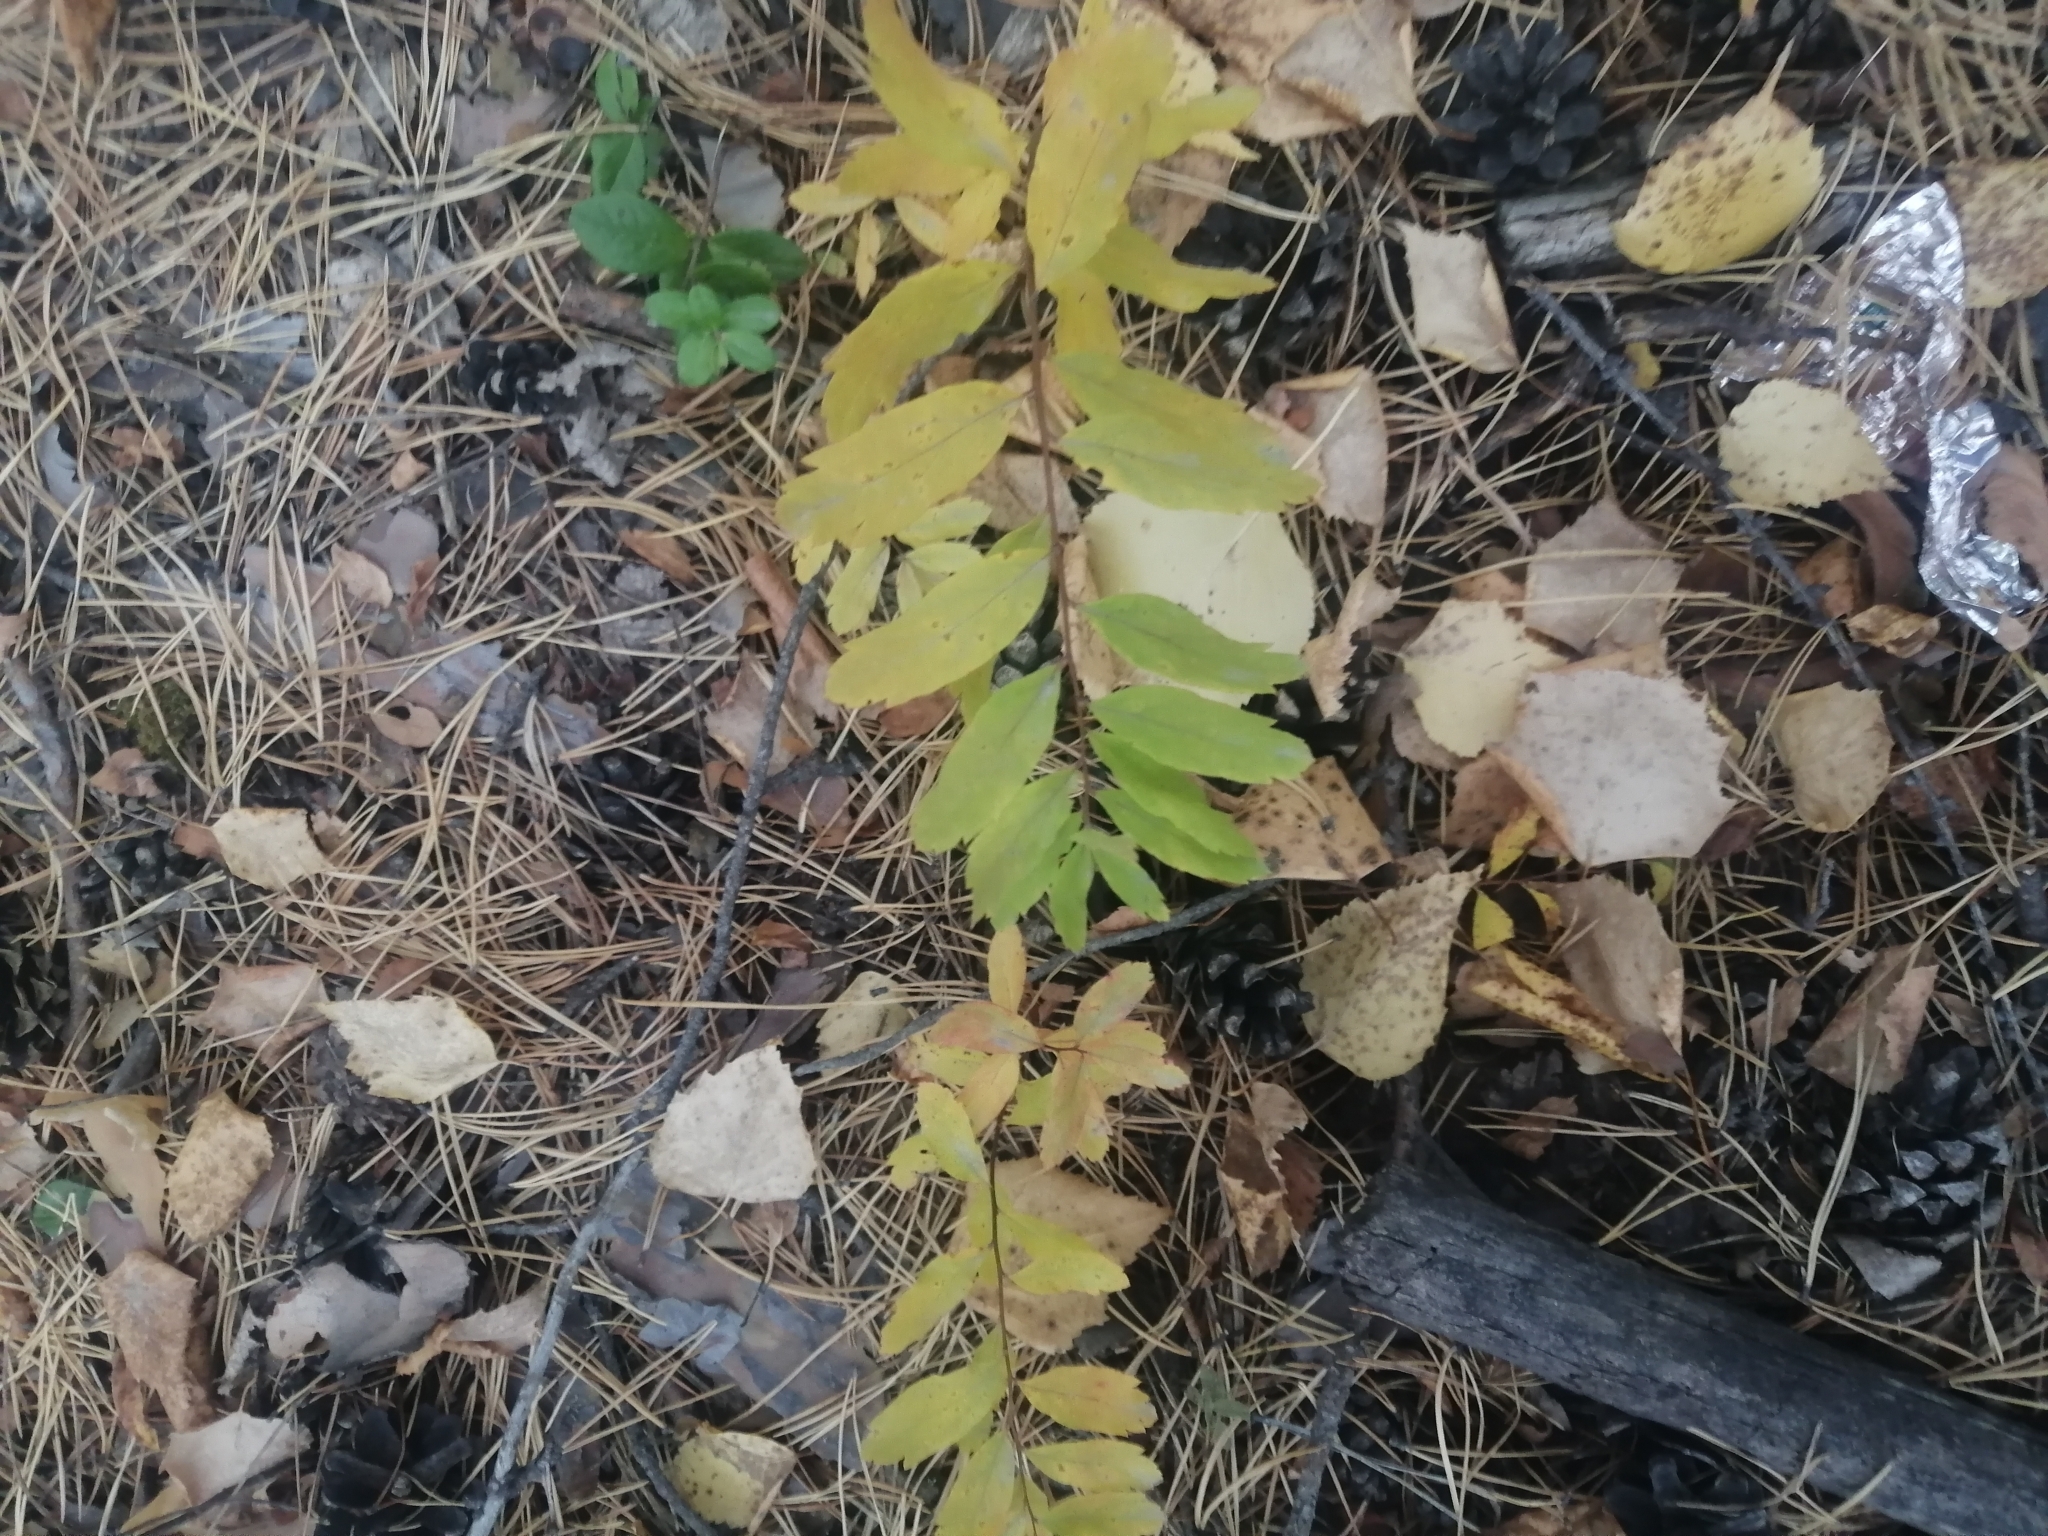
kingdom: Plantae
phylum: Tracheophyta
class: Magnoliopsida
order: Rosales
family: Rosaceae
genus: Spiraea
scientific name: Spiraea media
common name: Russian spiraea
